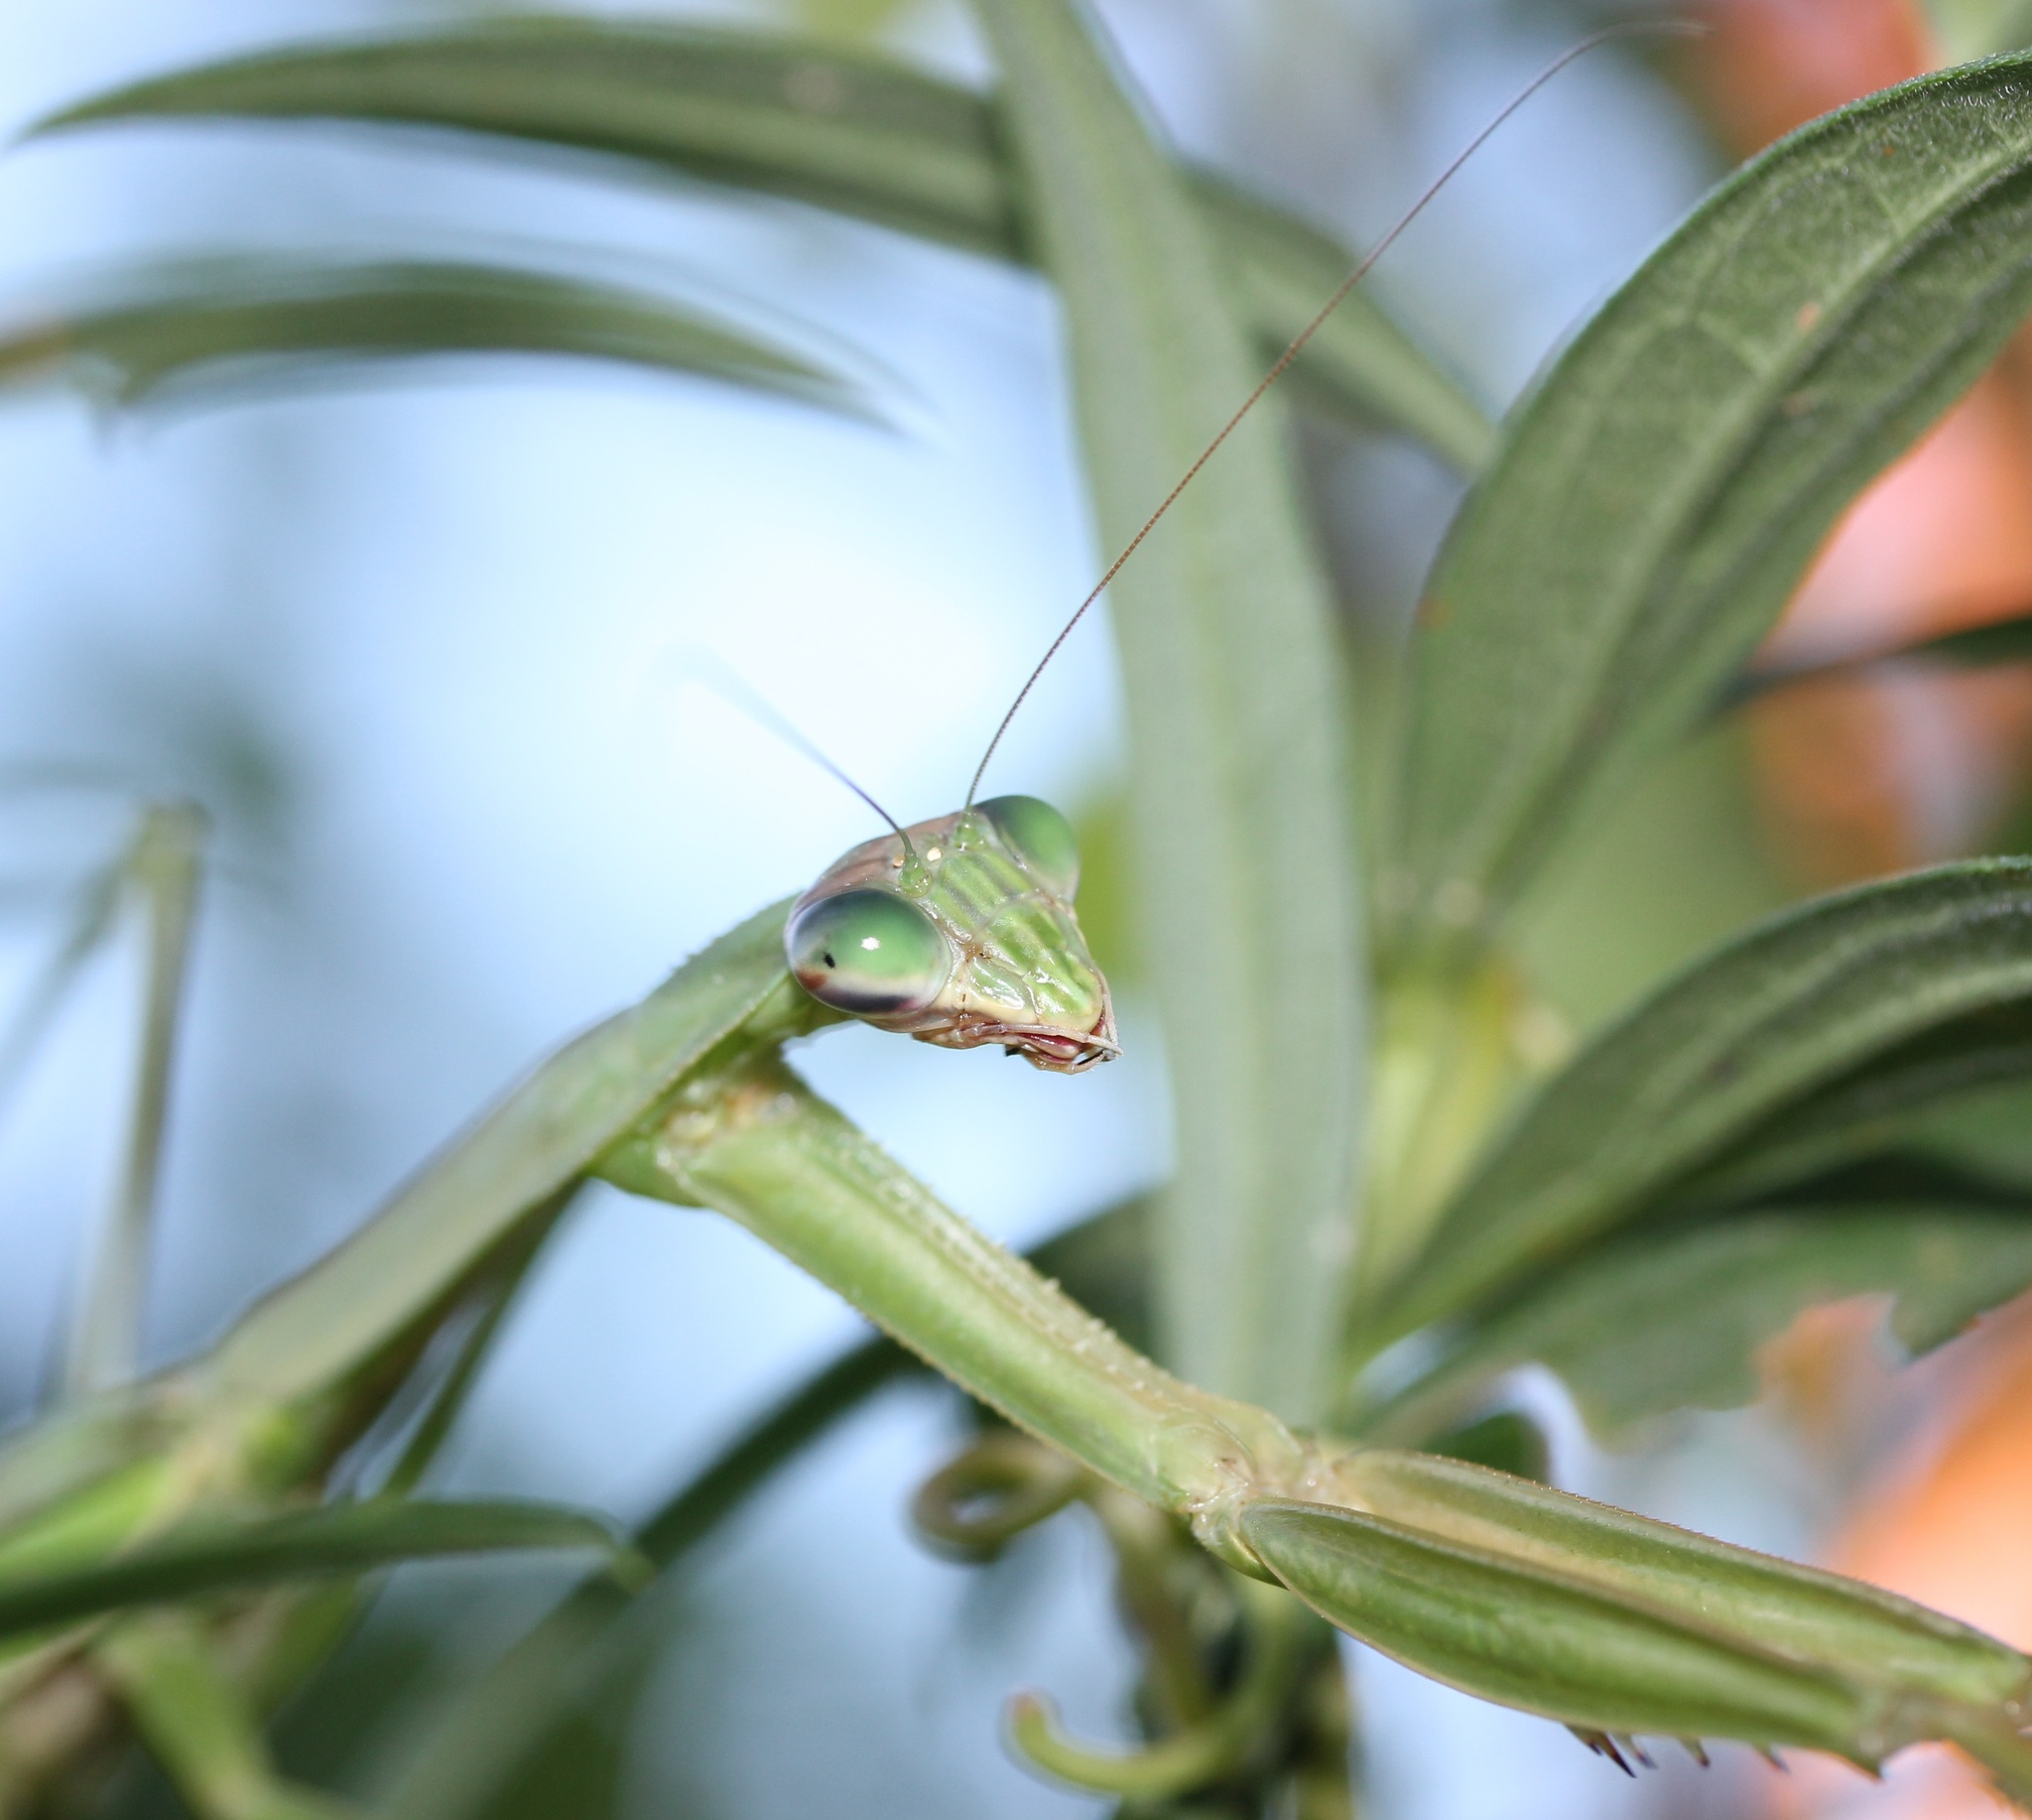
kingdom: Animalia
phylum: Arthropoda
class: Insecta
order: Mantodea
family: Mantidae
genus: Tenodera
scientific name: Tenodera sinensis
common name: Chinese mantis
